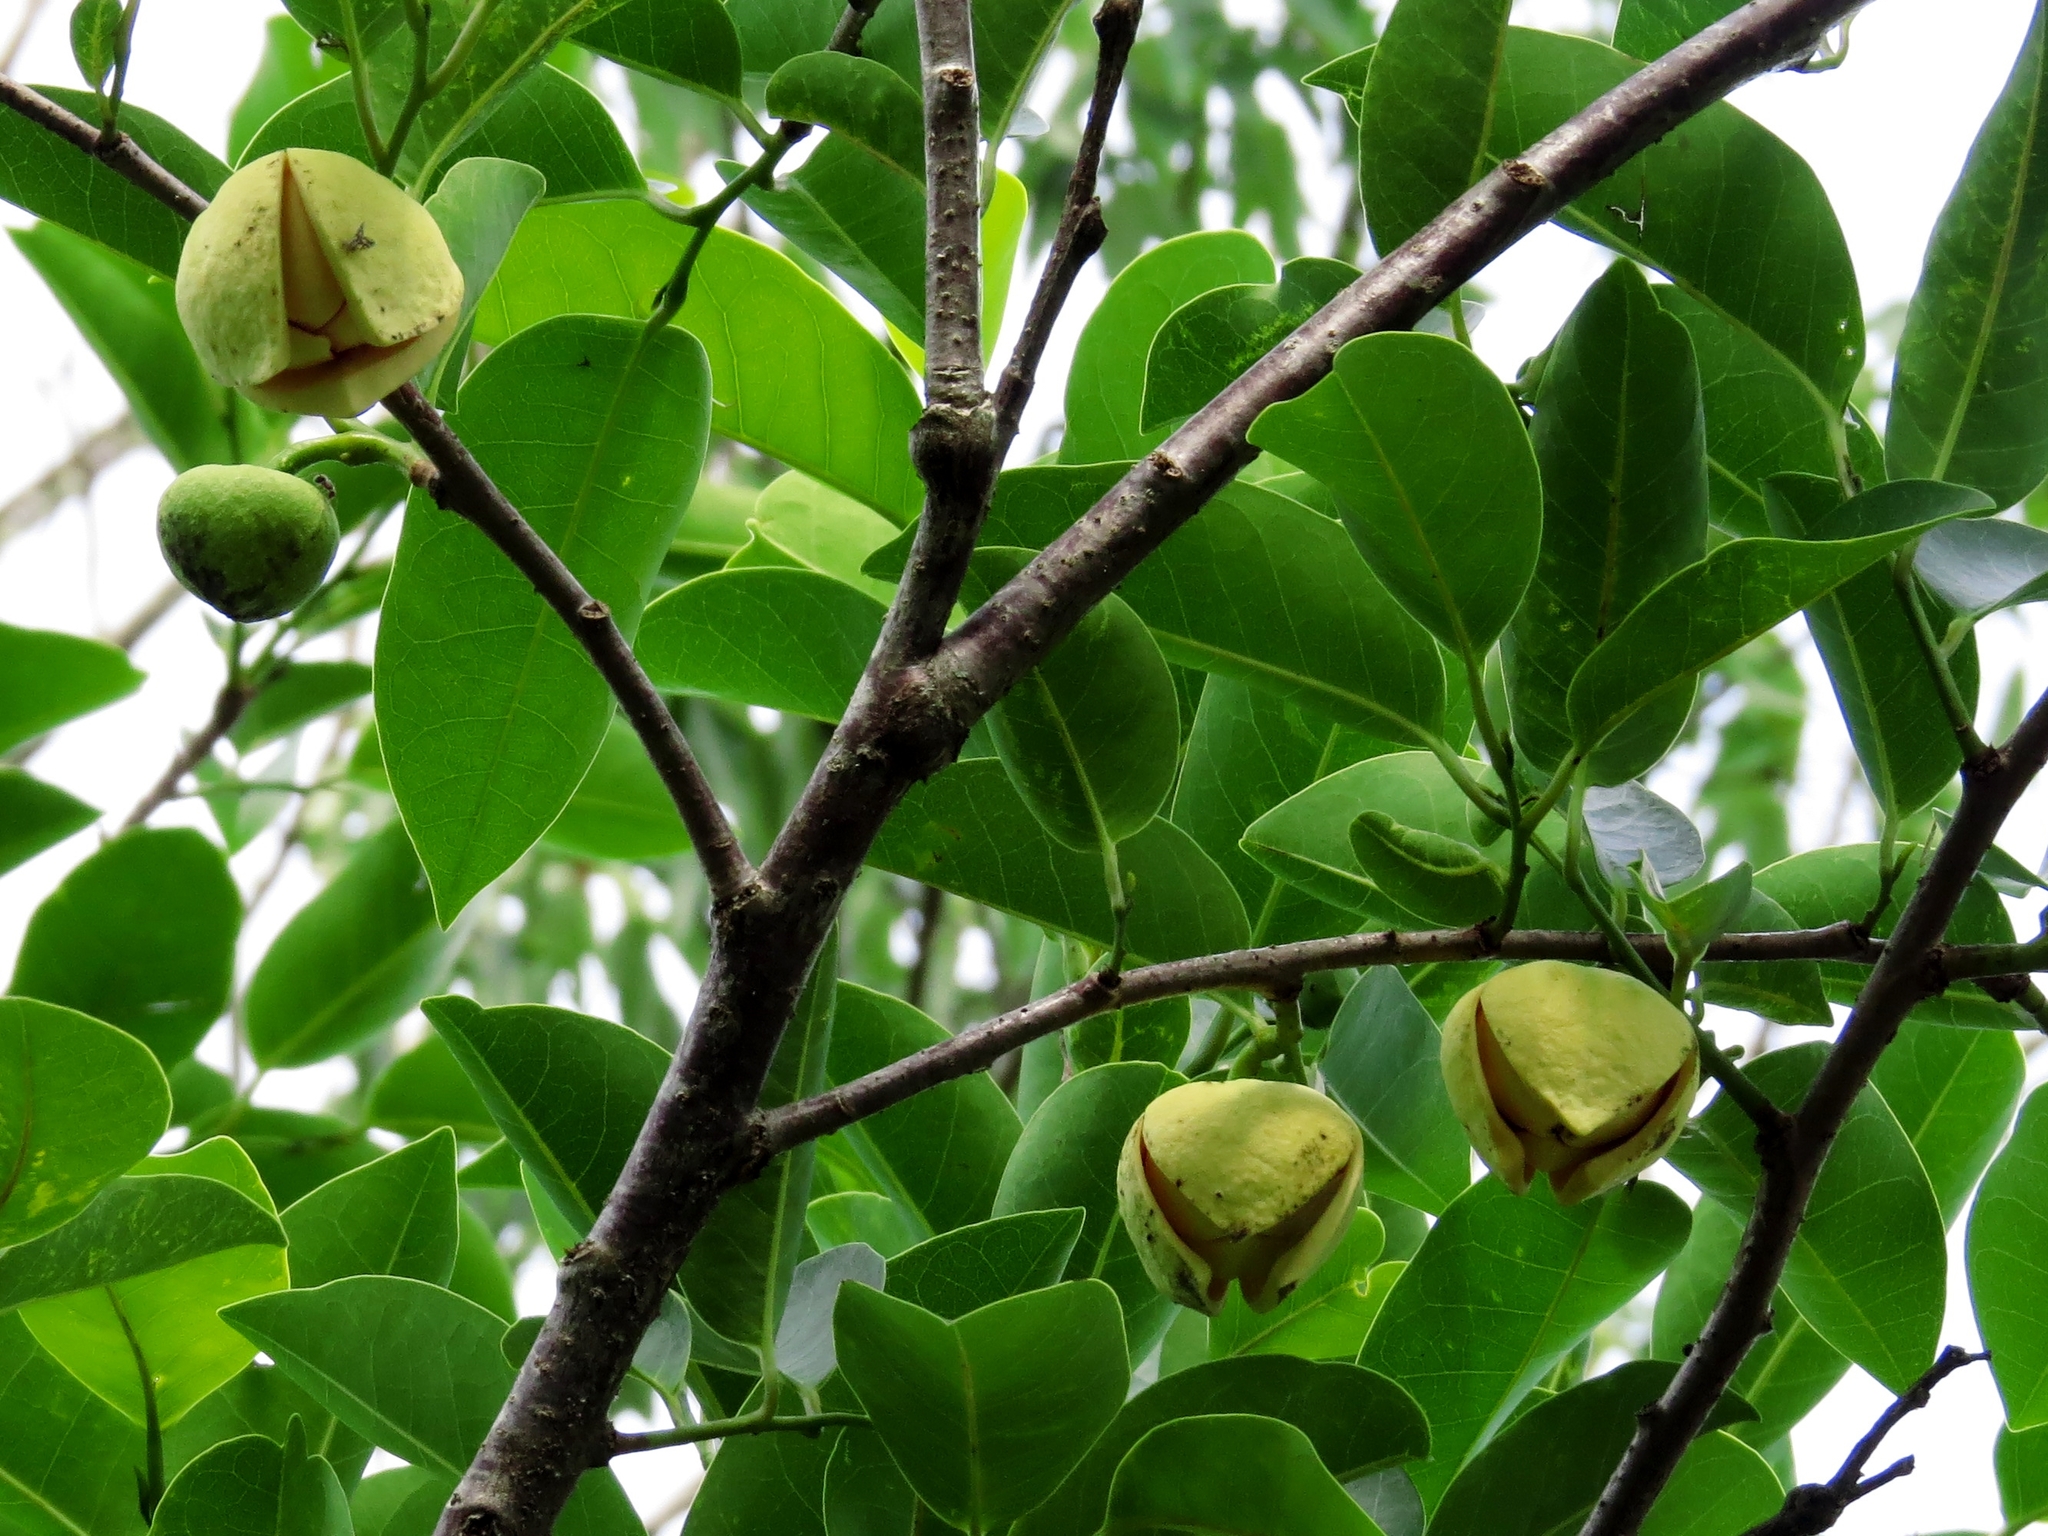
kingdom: Plantae
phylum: Tracheophyta
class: Magnoliopsida
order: Magnoliales
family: Annonaceae
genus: Annona
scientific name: Annona glabra
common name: Monkey apple
